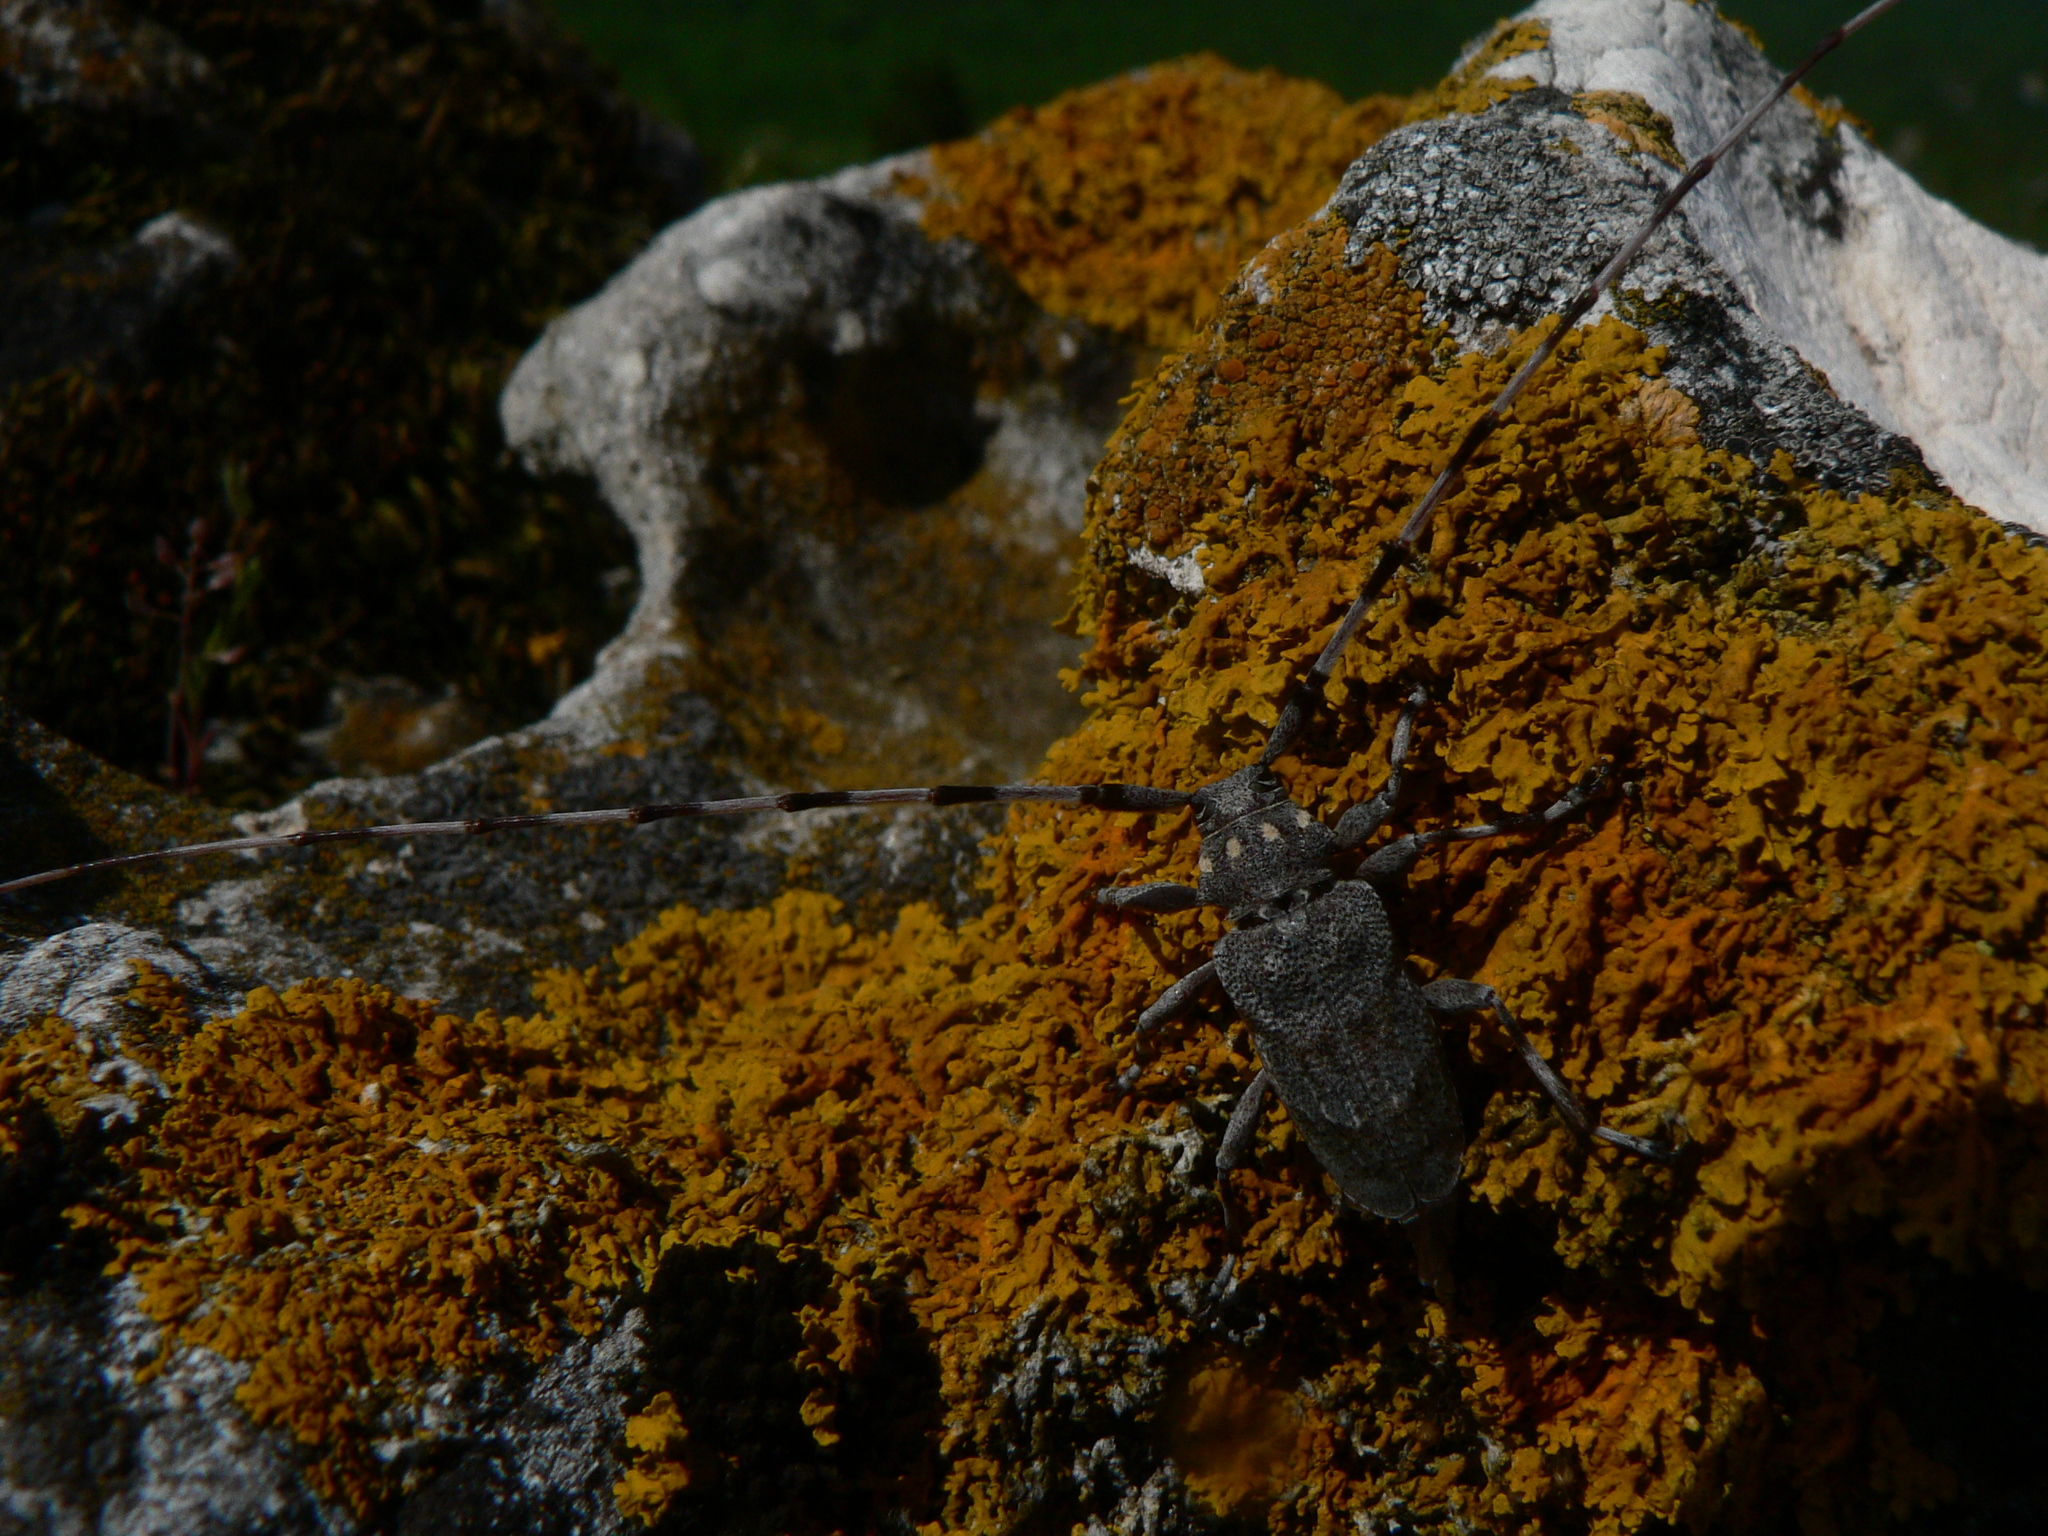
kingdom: Animalia
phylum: Arthropoda
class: Insecta
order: Coleoptera
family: Cerambycidae
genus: Acanthocinus
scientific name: Acanthocinus aedilis
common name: Timberman beetle
